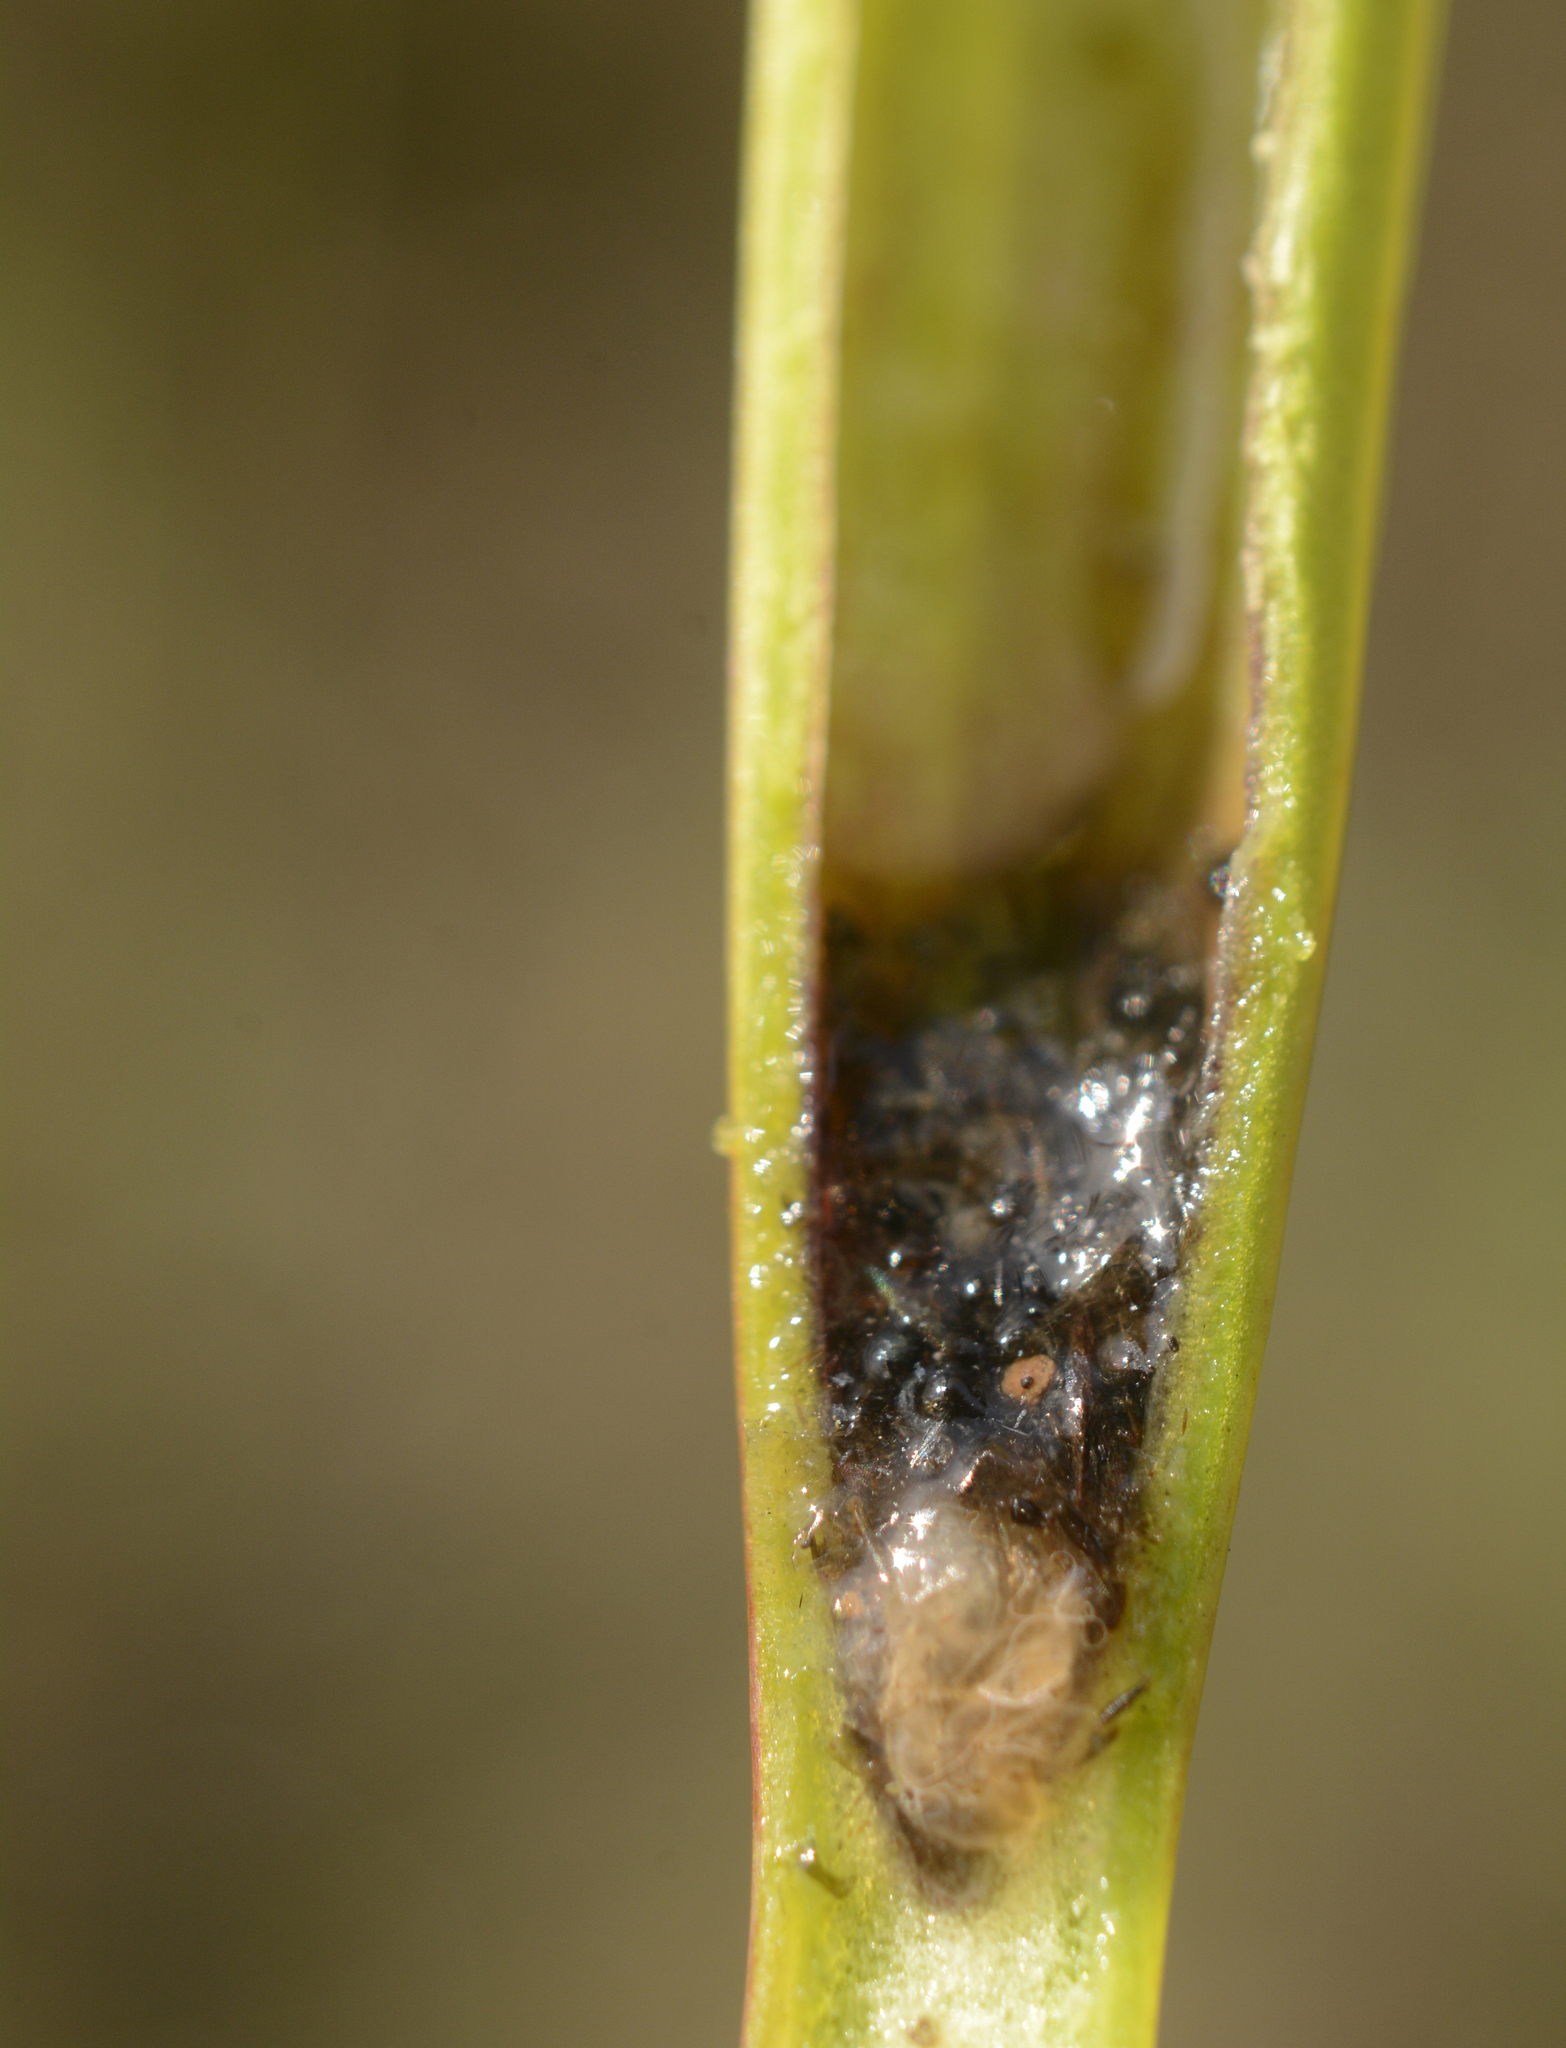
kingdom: Plantae
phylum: Tracheophyta
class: Magnoliopsida
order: Ericales
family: Sarraceniaceae
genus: Sarracenia
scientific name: Sarracenia flava
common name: Trumpets
